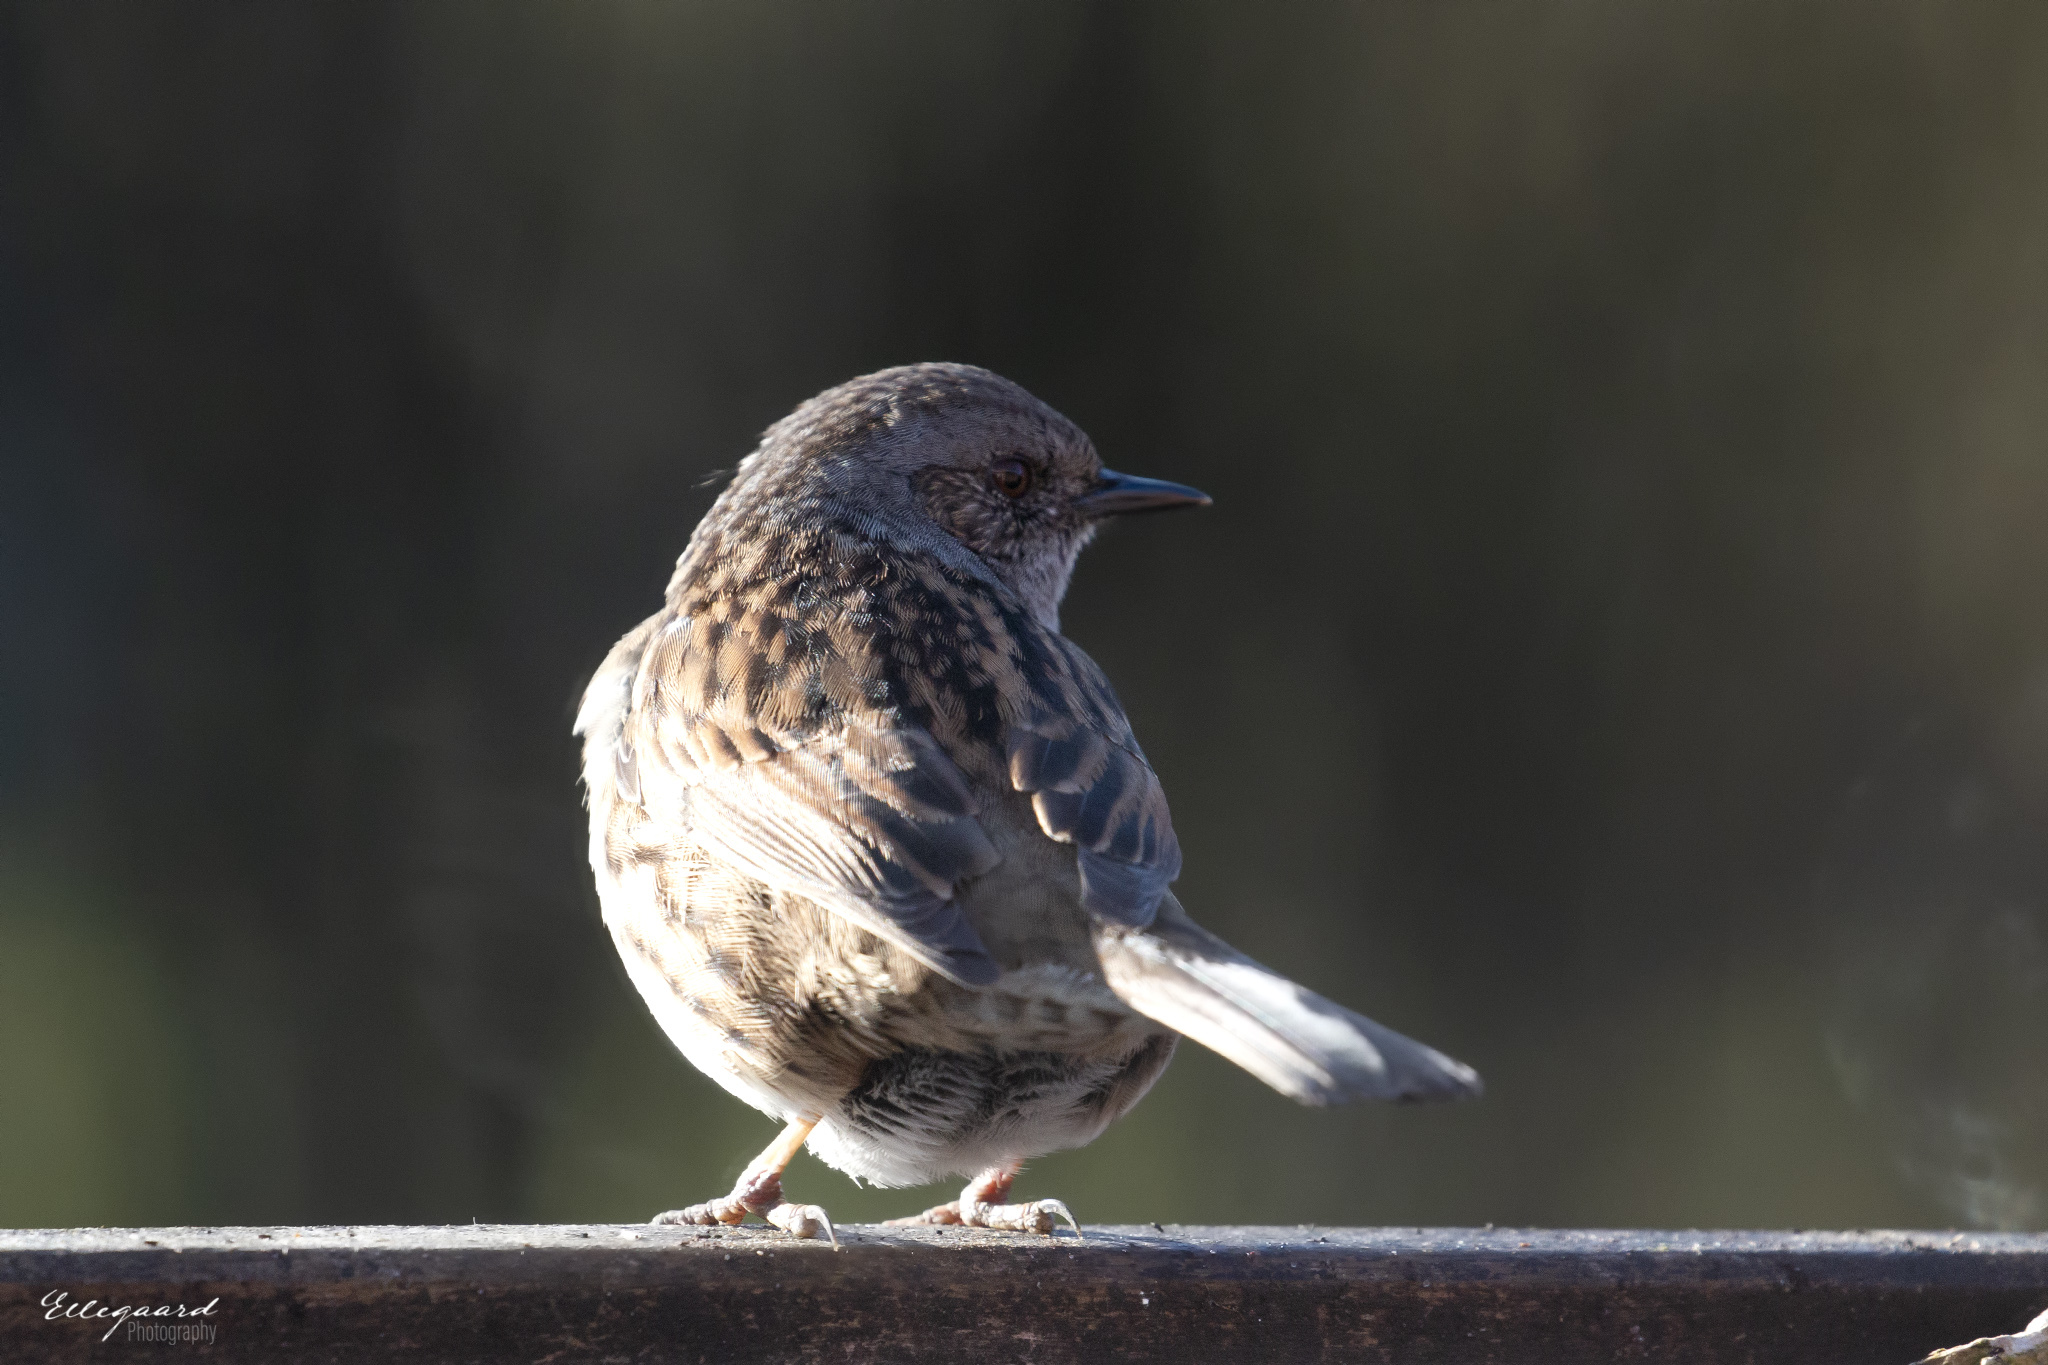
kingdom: Animalia
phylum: Chordata
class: Aves
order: Passeriformes
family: Prunellidae
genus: Prunella
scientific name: Prunella modularis
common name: Dunnock
